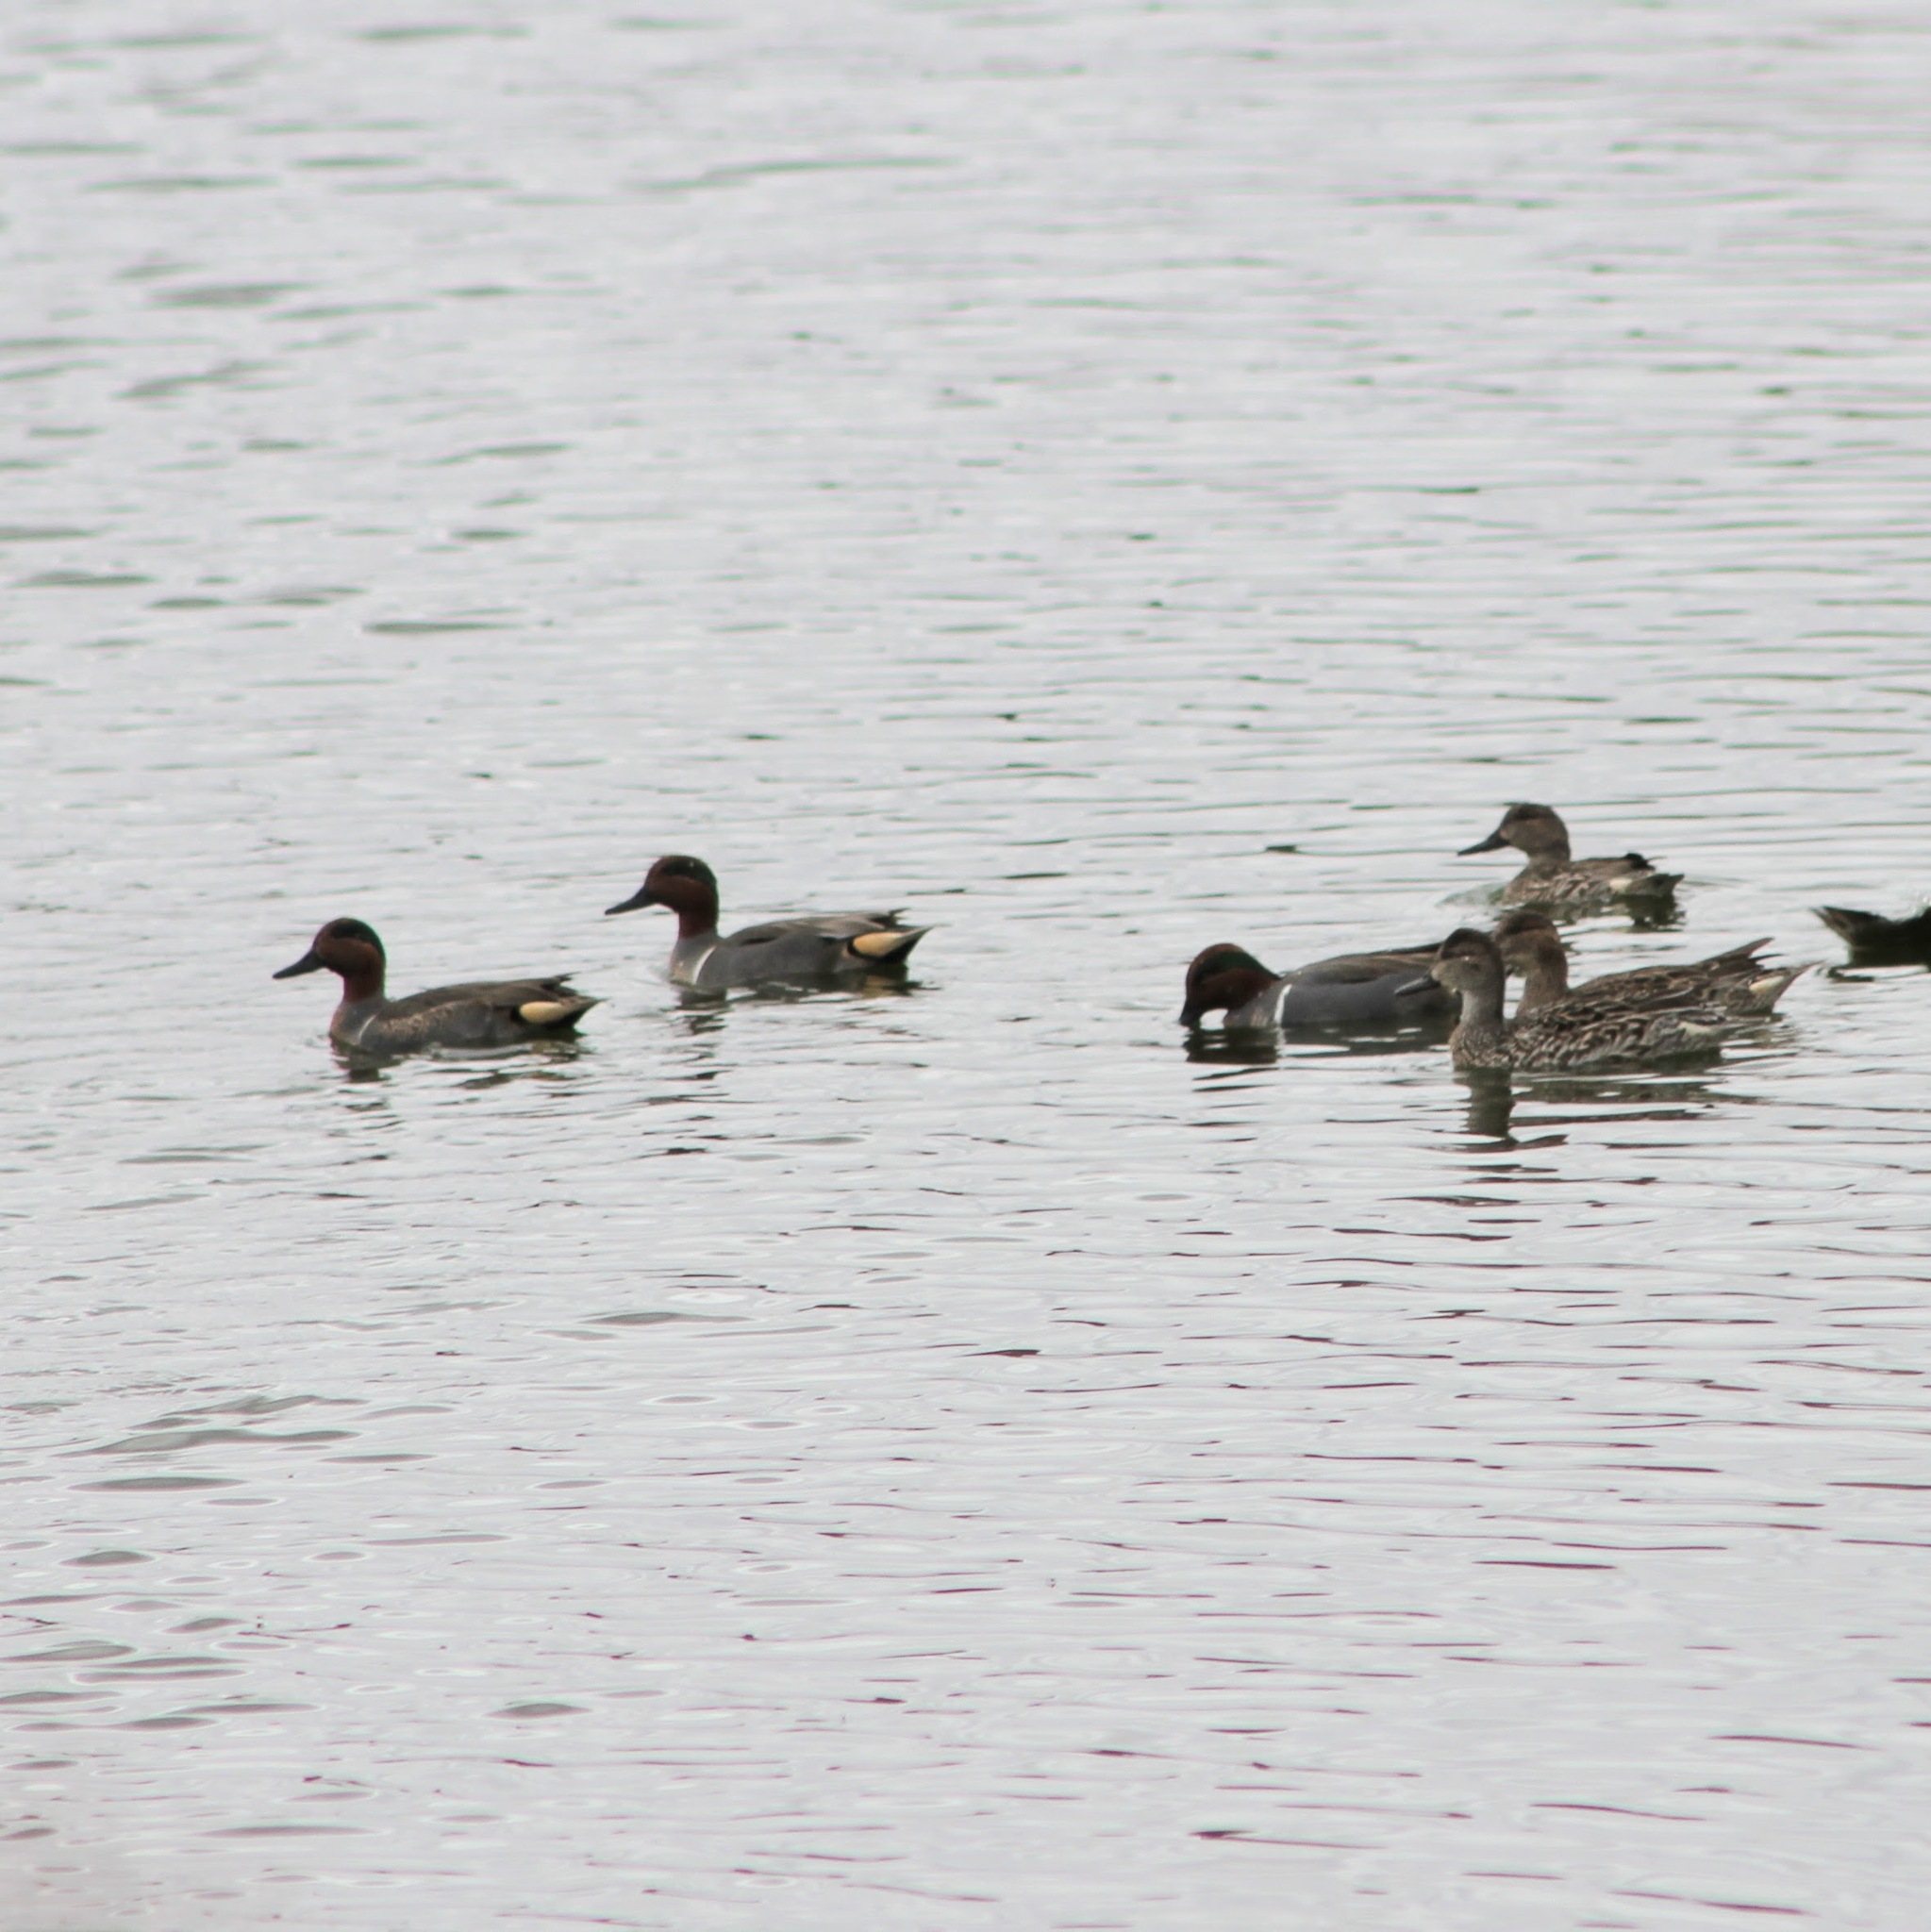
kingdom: Animalia
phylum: Chordata
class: Aves
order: Anseriformes
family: Anatidae
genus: Anas
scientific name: Anas crecca
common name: Eurasian teal
